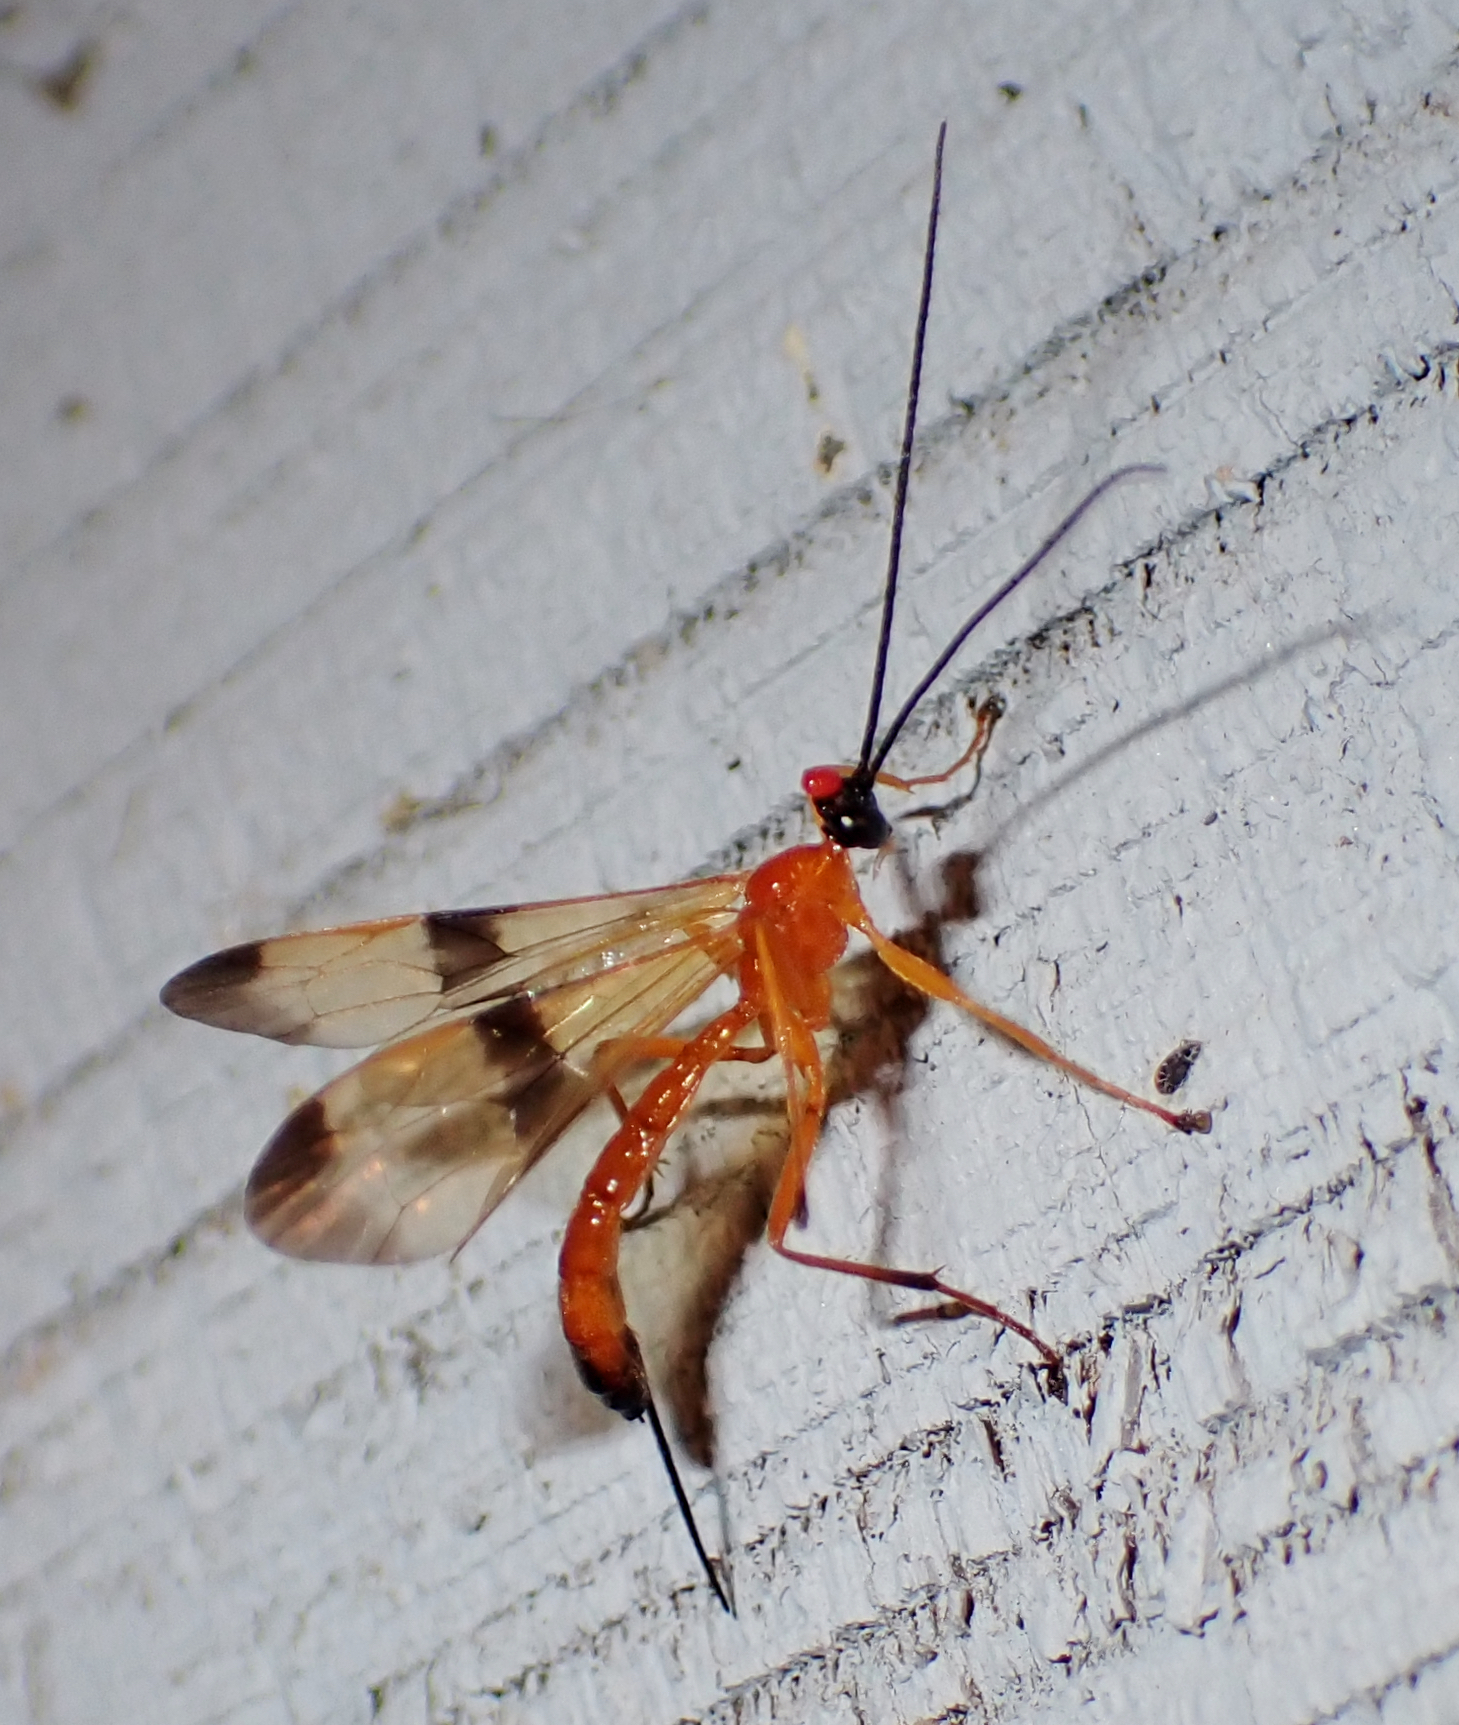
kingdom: Animalia
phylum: Arthropoda
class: Insecta
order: Hymenoptera
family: Ichneumonidae
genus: Acrotaphus
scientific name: Acrotaphus wiltii
